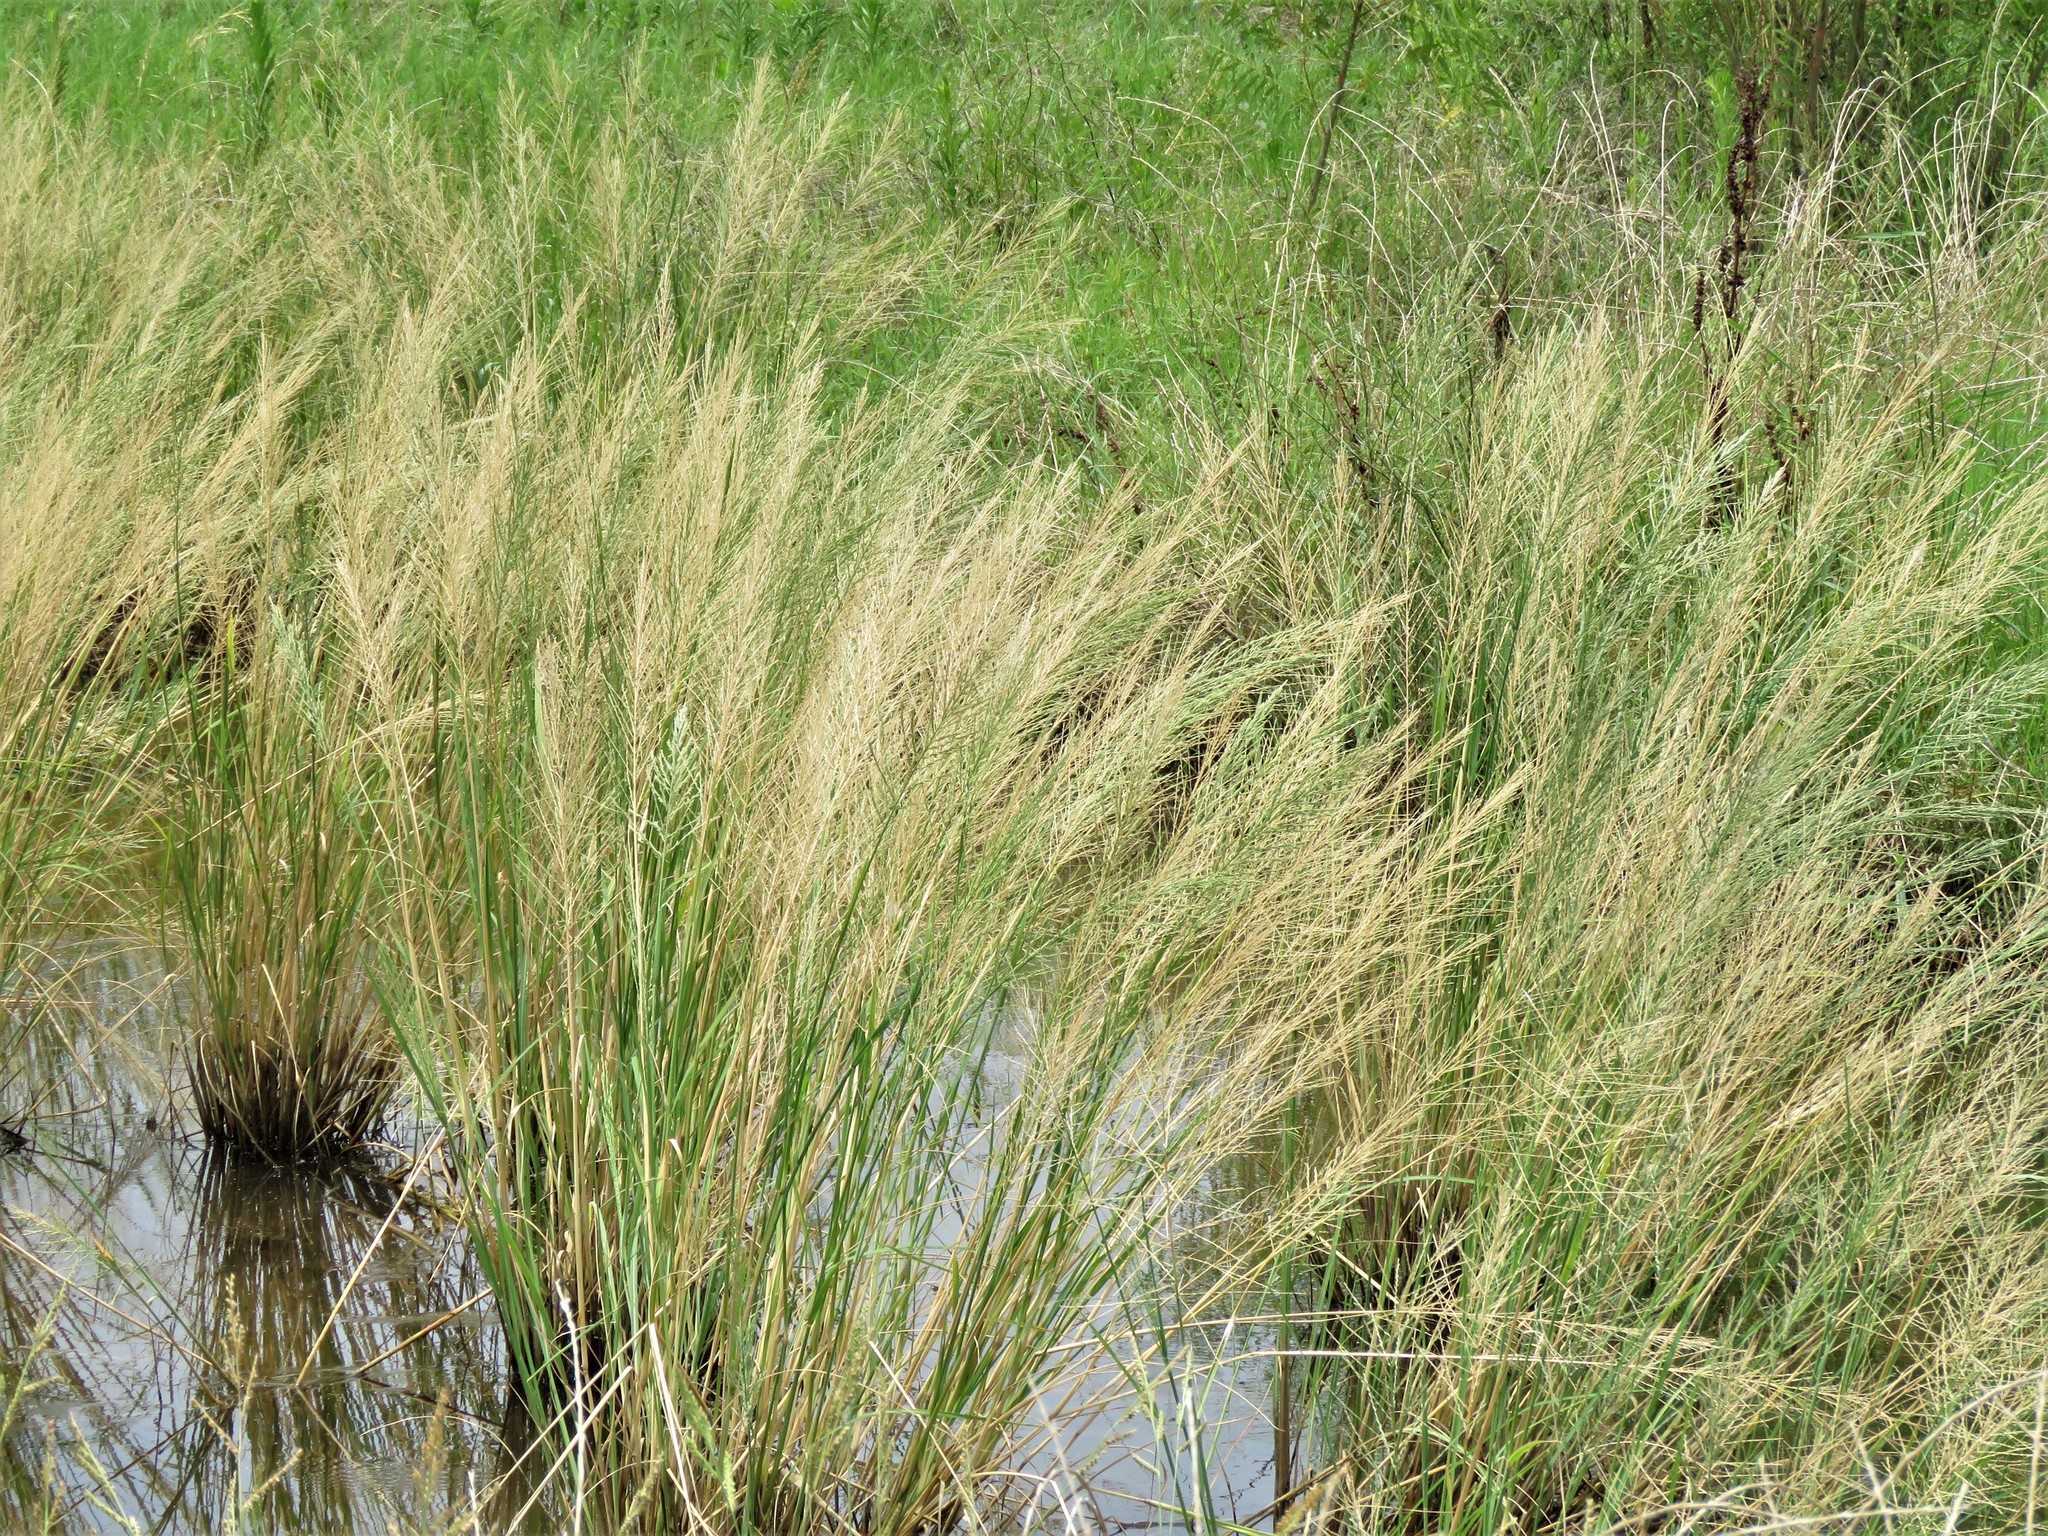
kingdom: Plantae
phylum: Tracheophyta
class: Liliopsida
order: Poales
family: Poaceae
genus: Diplachne
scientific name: Diplachne fusca
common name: Brown beetle grass
